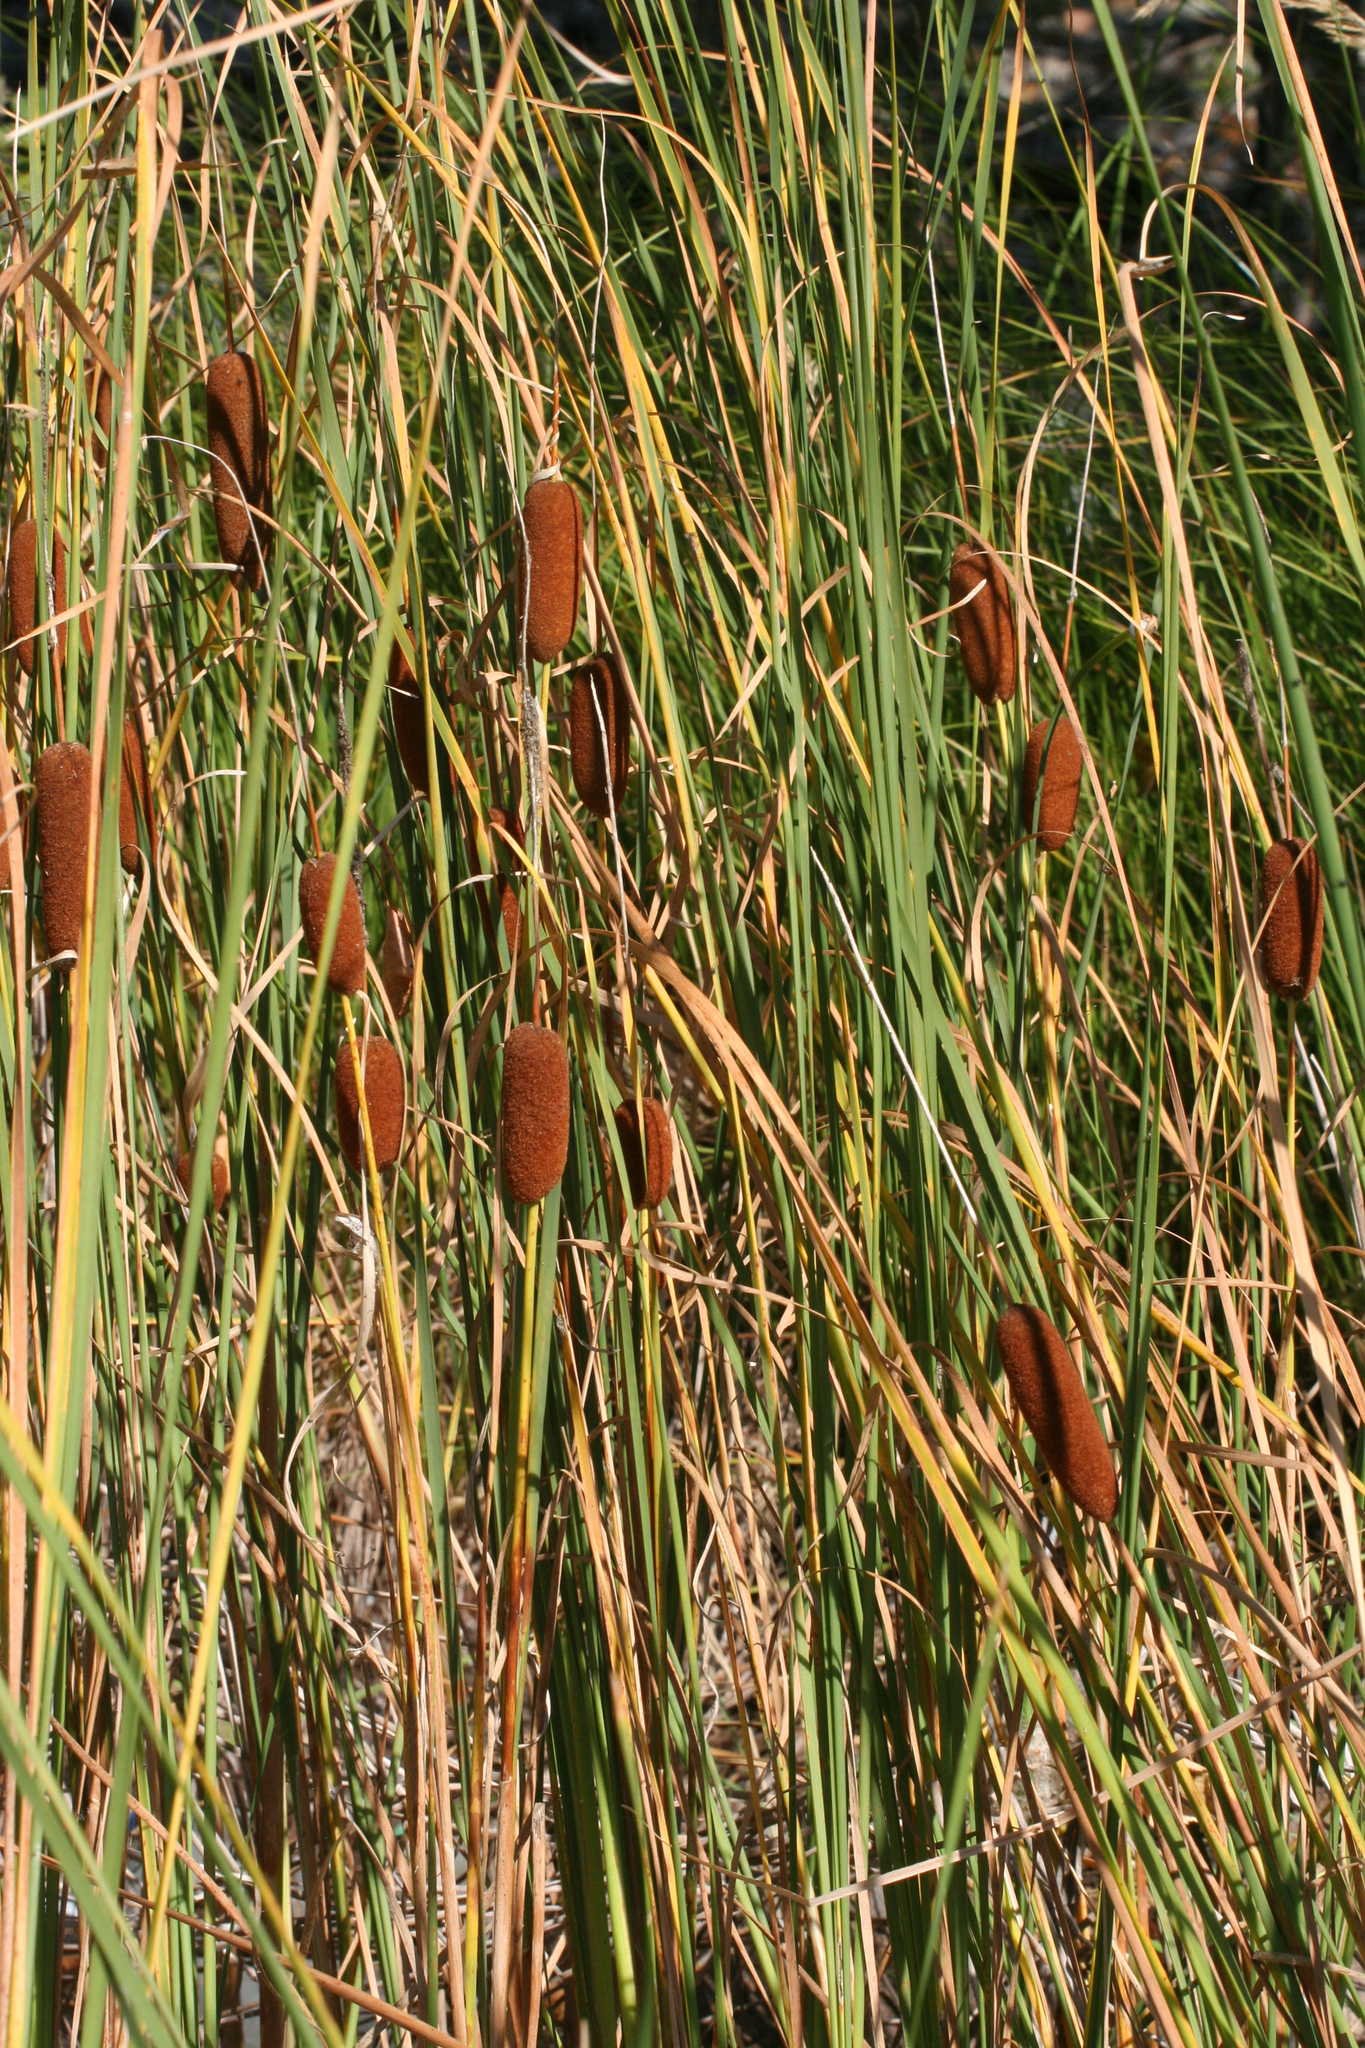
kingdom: Plantae
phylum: Tracheophyta
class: Liliopsida
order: Poales
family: Typhaceae
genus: Typha
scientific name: Typha laxmannii
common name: Laxman’s bulrush
